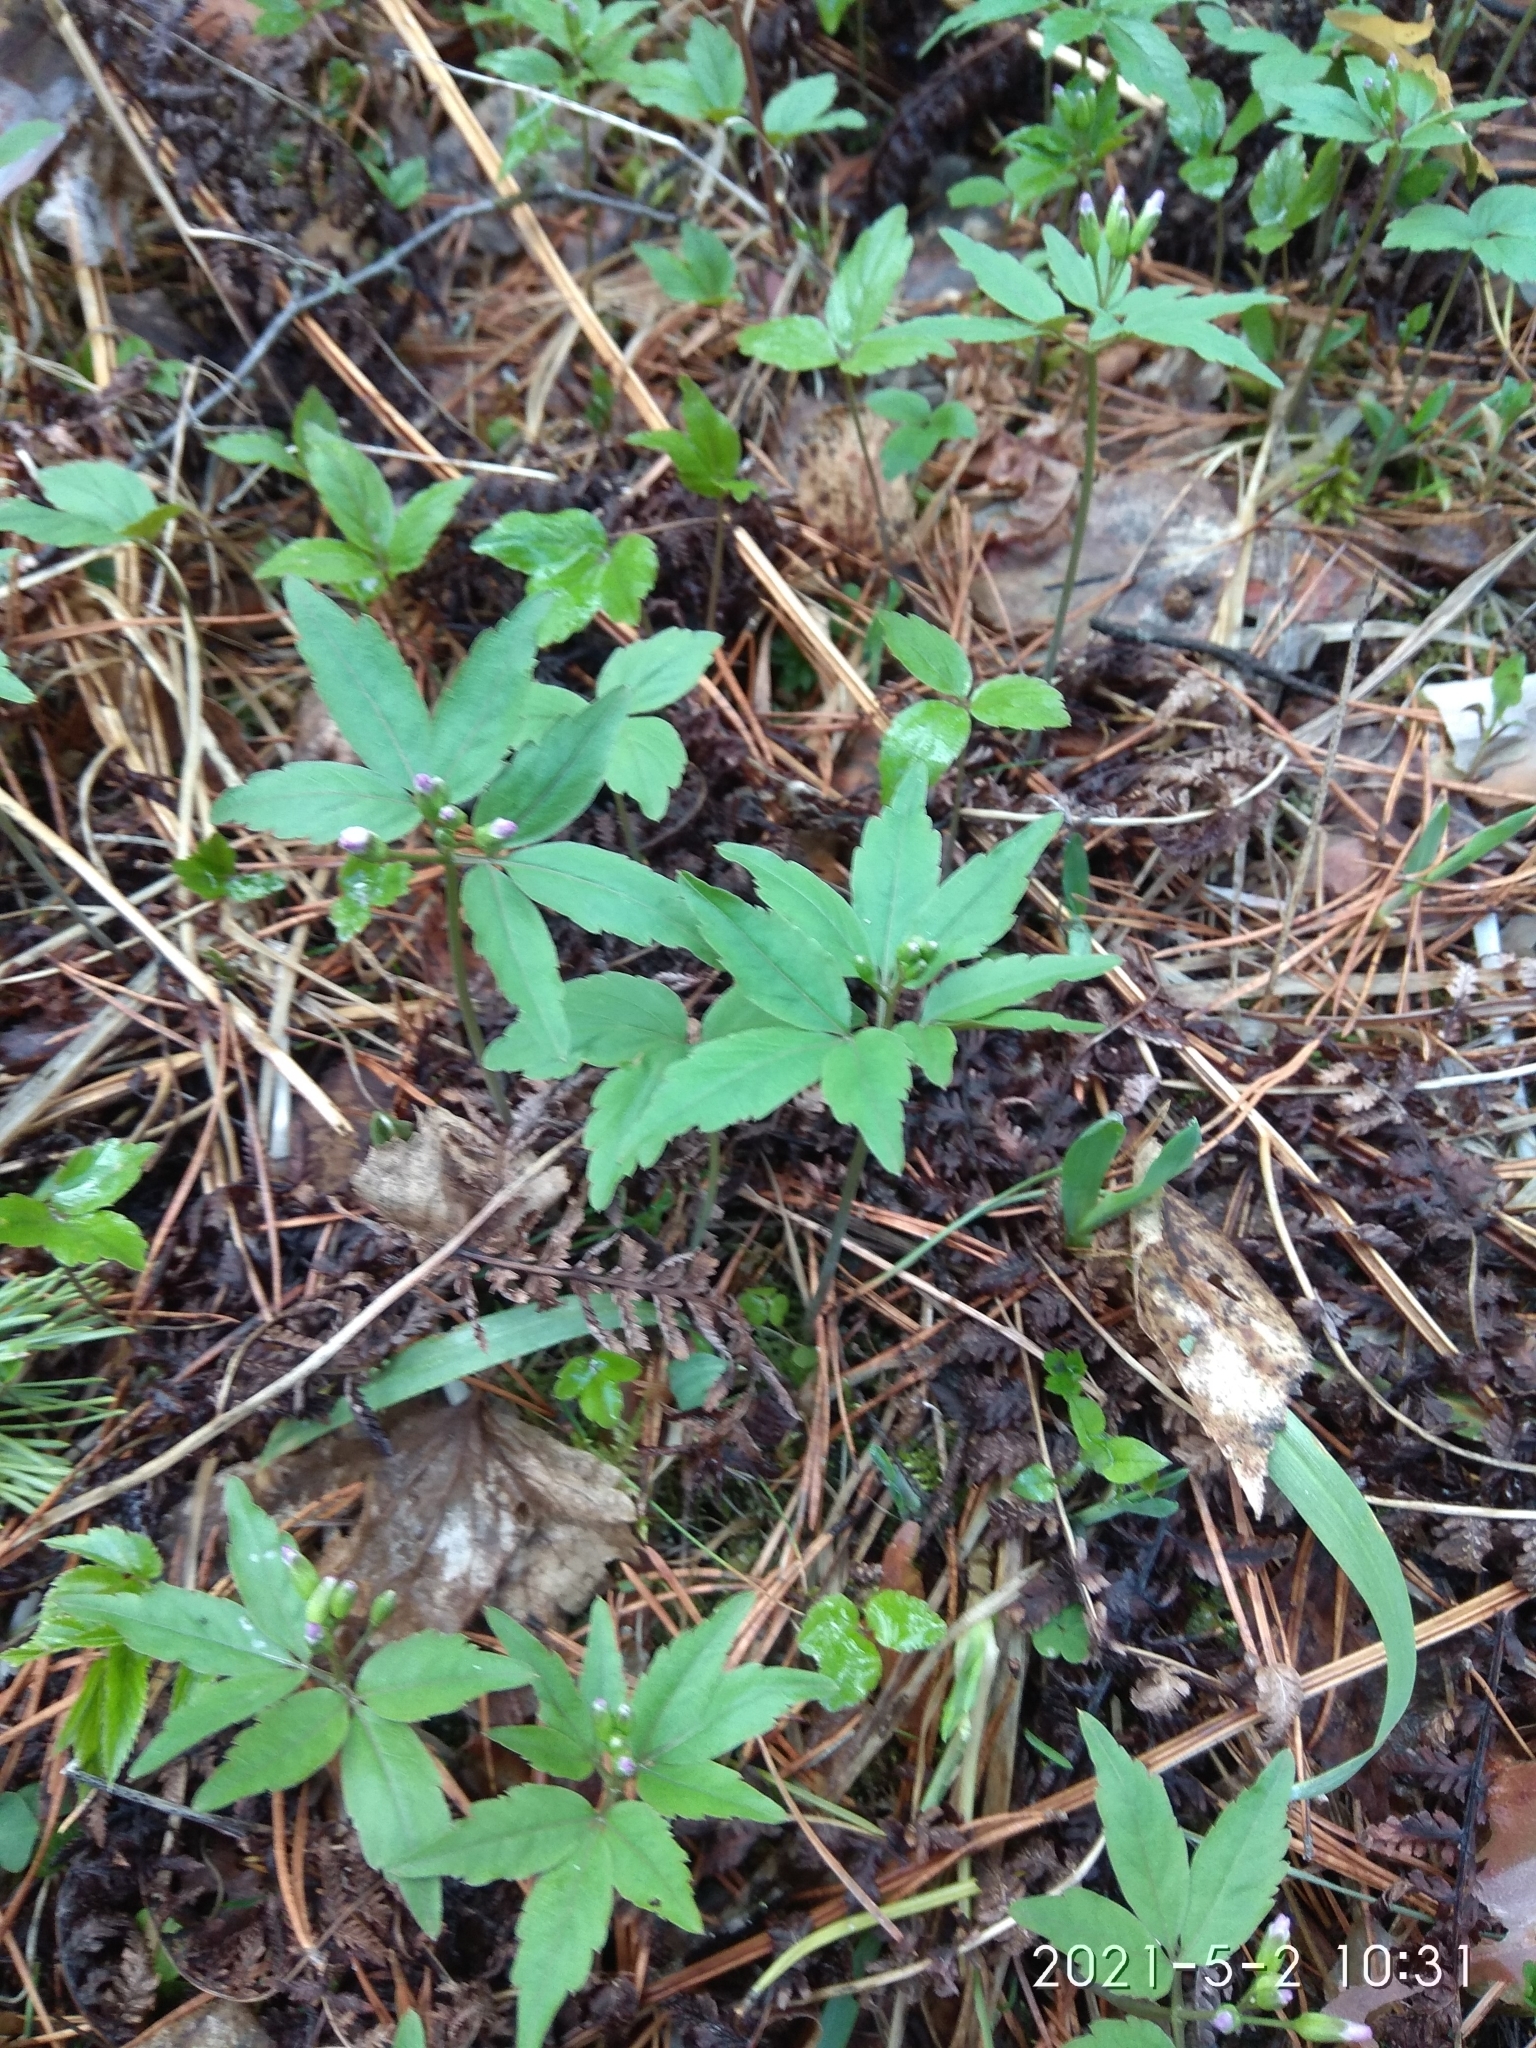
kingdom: Plantae
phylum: Tracheophyta
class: Magnoliopsida
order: Brassicales
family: Brassicaceae
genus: Cardamine
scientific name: Cardamine altaica
